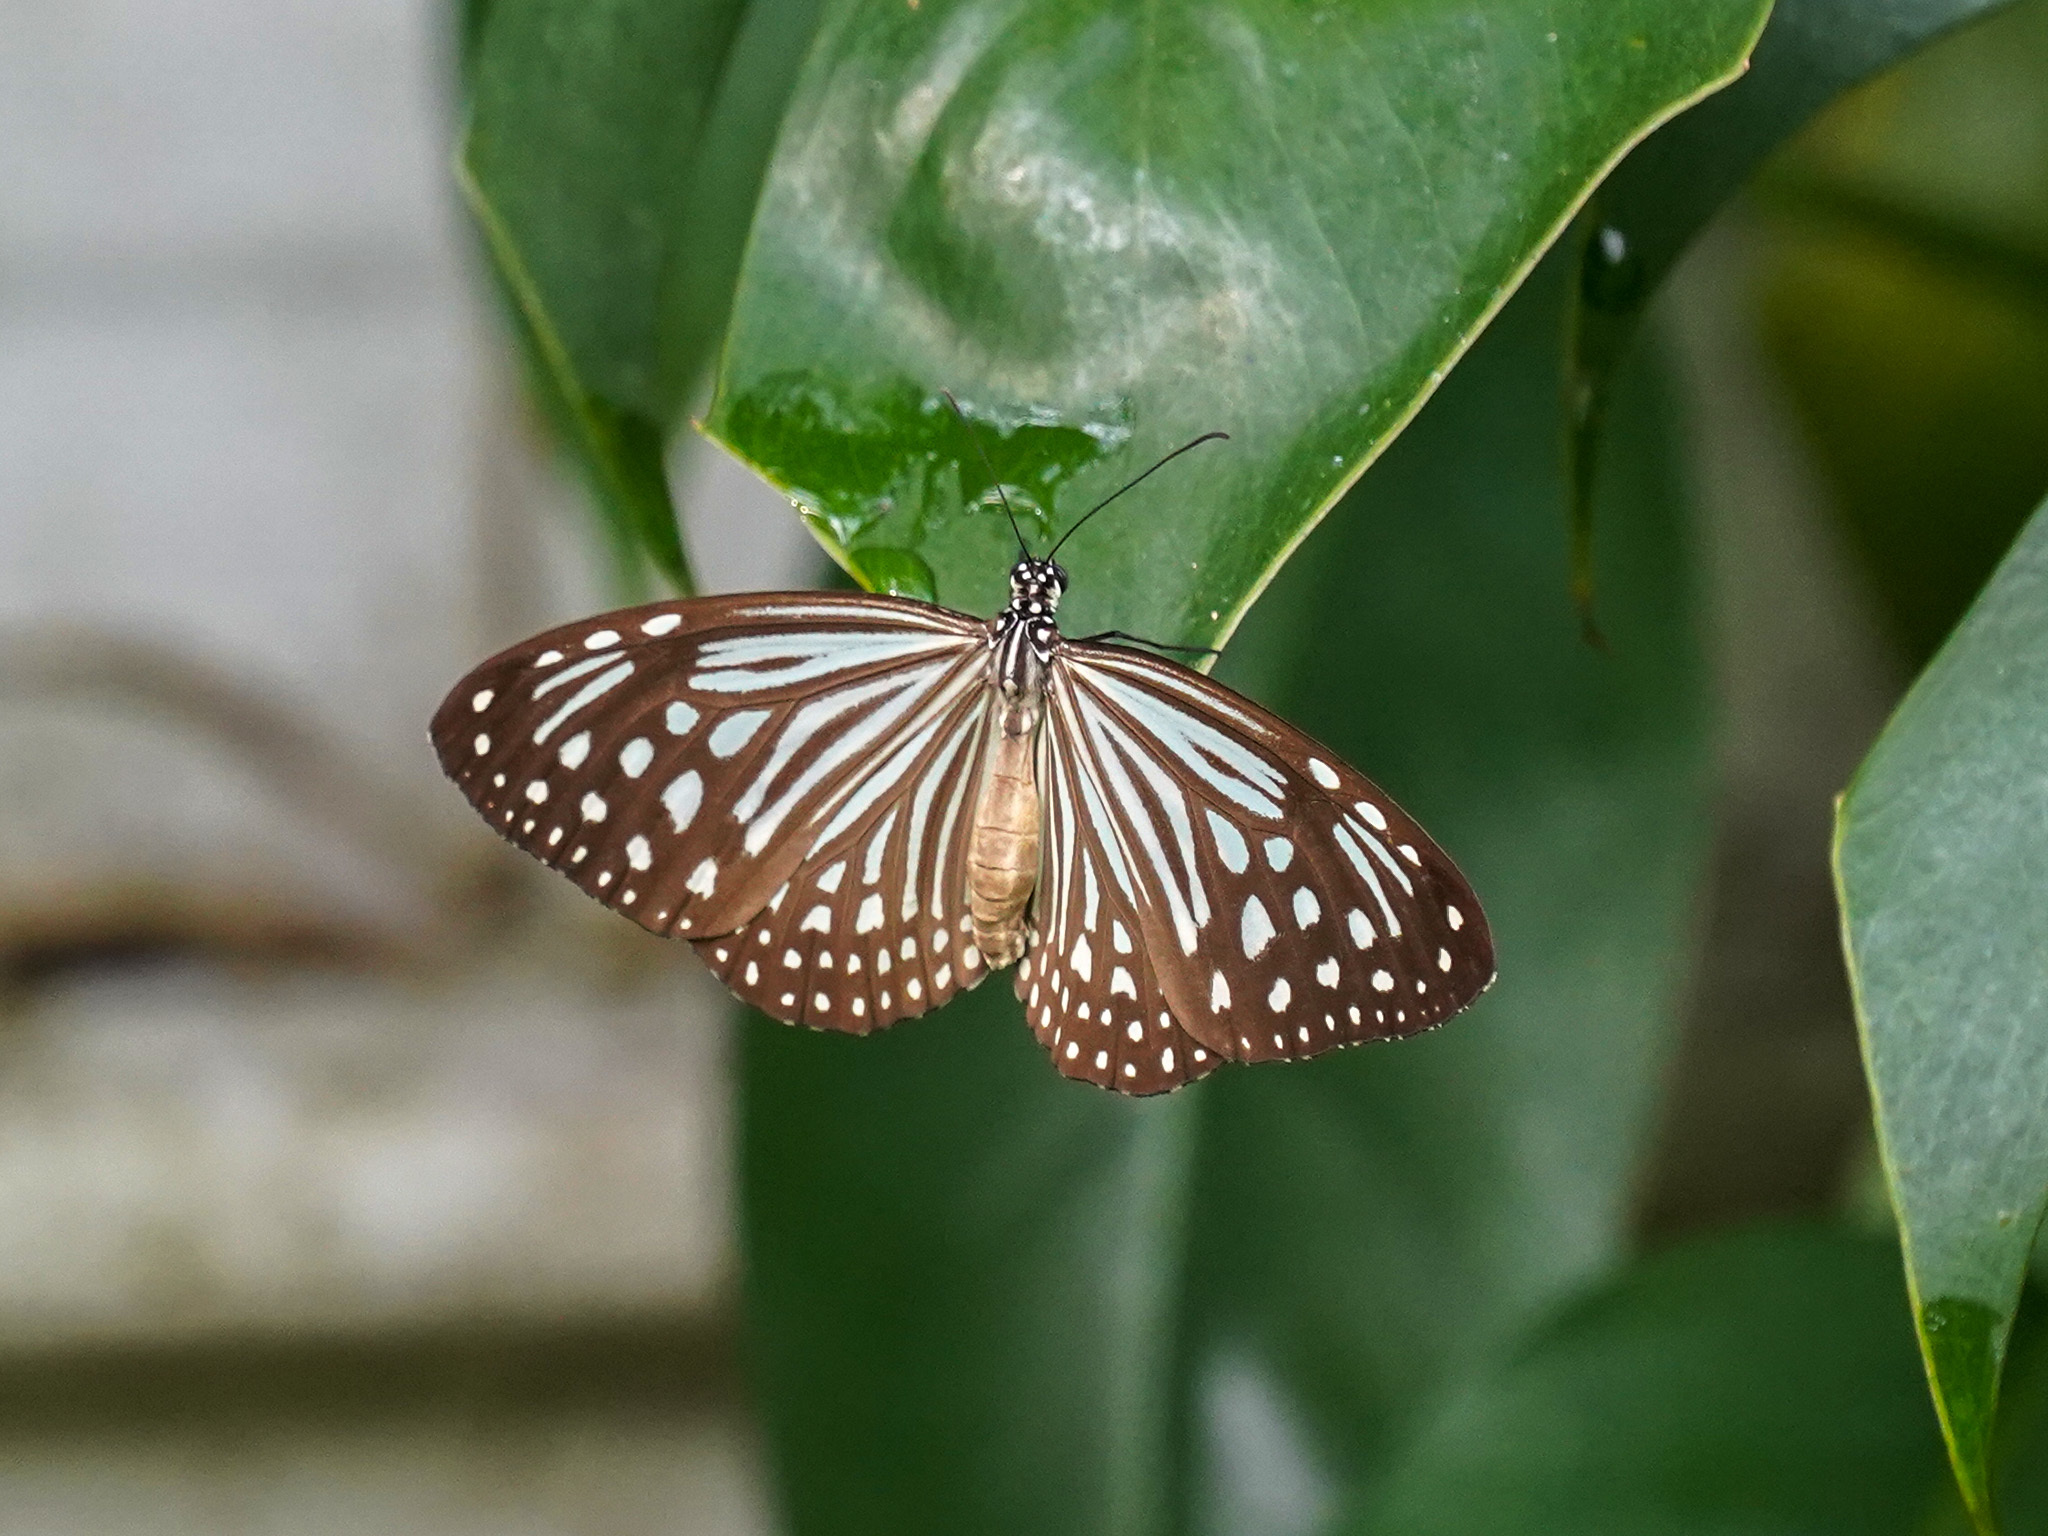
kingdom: Animalia
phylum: Arthropoda
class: Insecta
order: Lepidoptera
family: Nymphalidae
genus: Parantica
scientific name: Parantica agleoides
